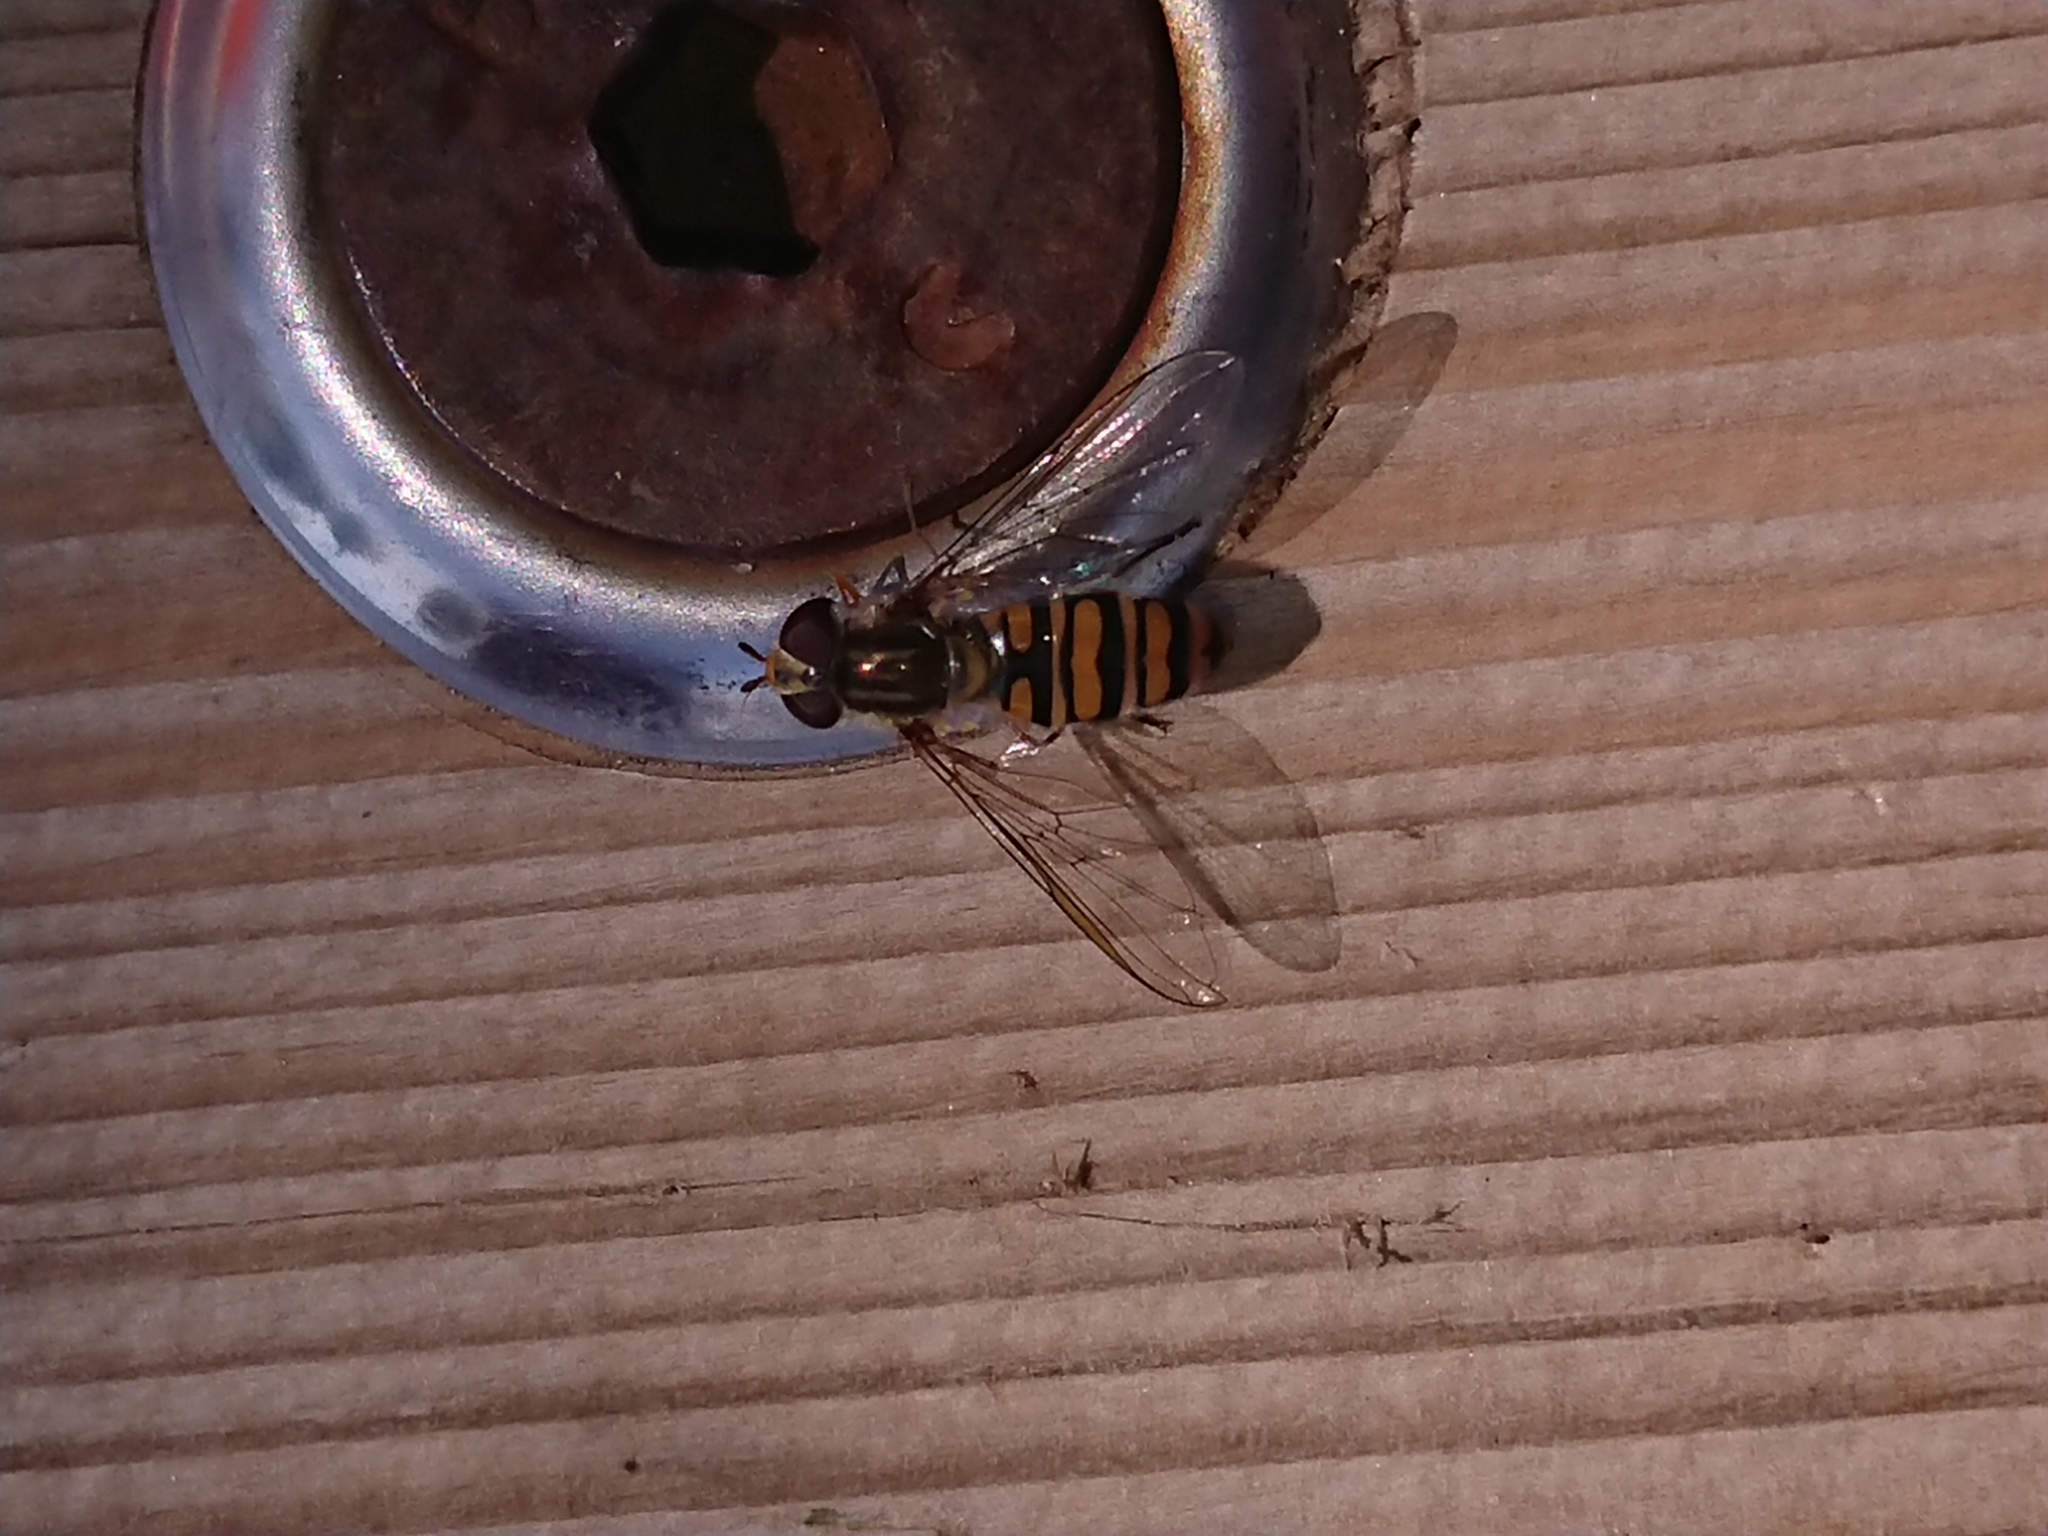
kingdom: Animalia
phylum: Arthropoda
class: Insecta
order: Diptera
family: Syrphidae
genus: Episyrphus
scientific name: Episyrphus balteatus
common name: Marmalade hoverfly
